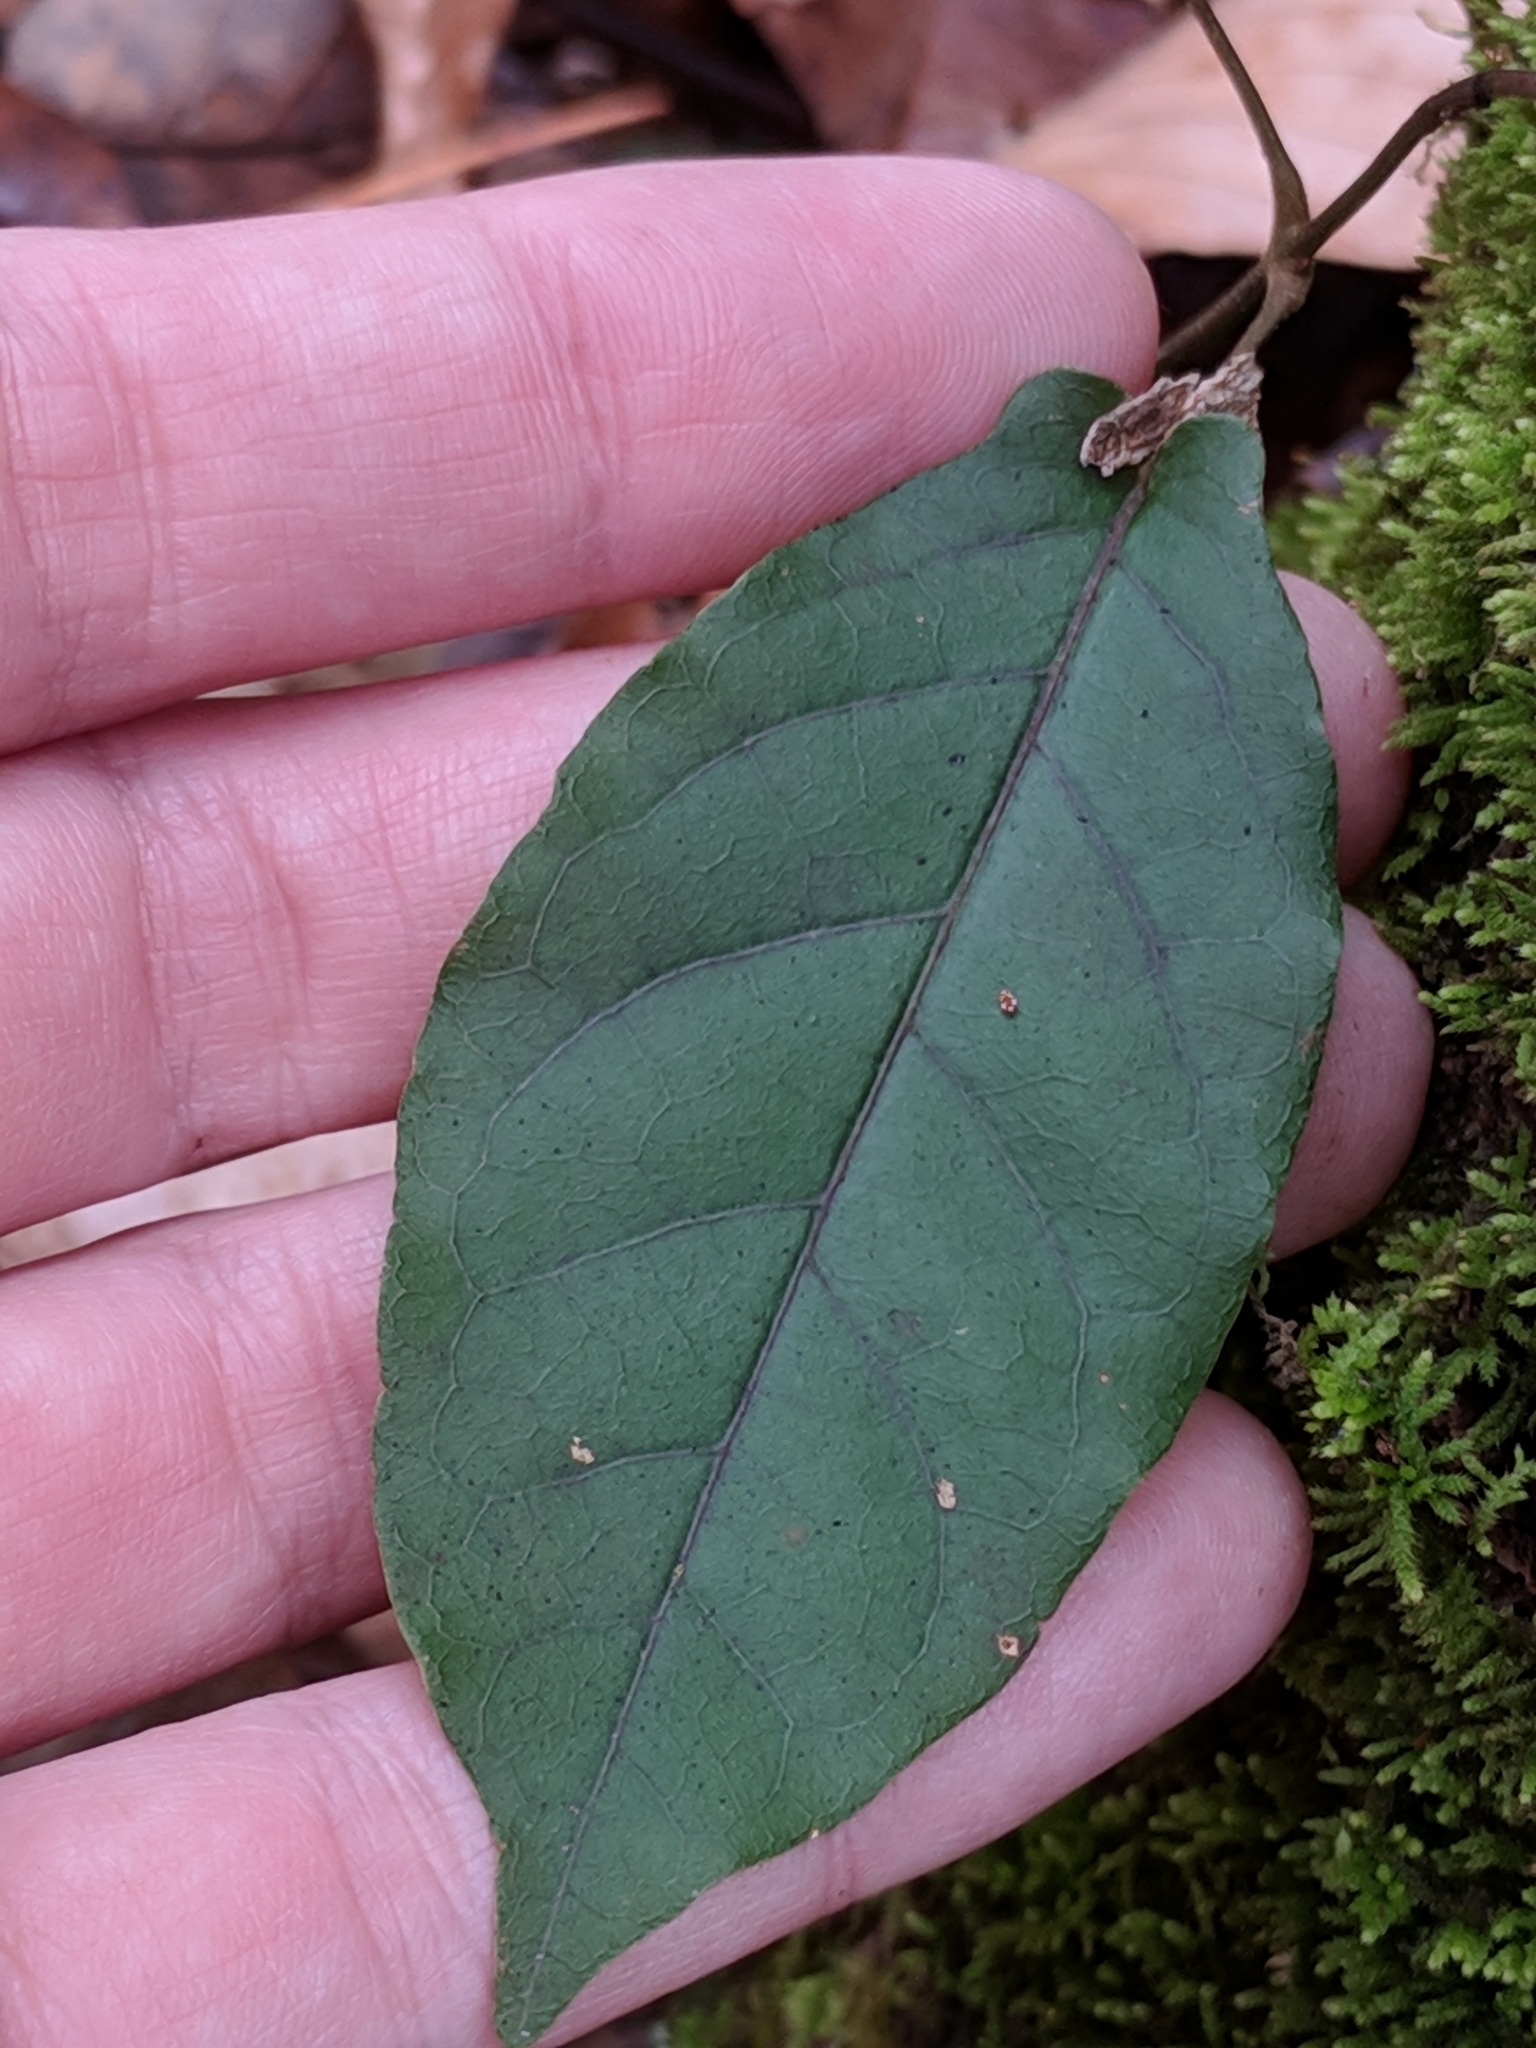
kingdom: Plantae
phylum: Tracheophyta
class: Magnoliopsida
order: Lamiales
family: Bignoniaceae
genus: Bignonia
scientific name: Bignonia capreolata
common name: Crossvine
